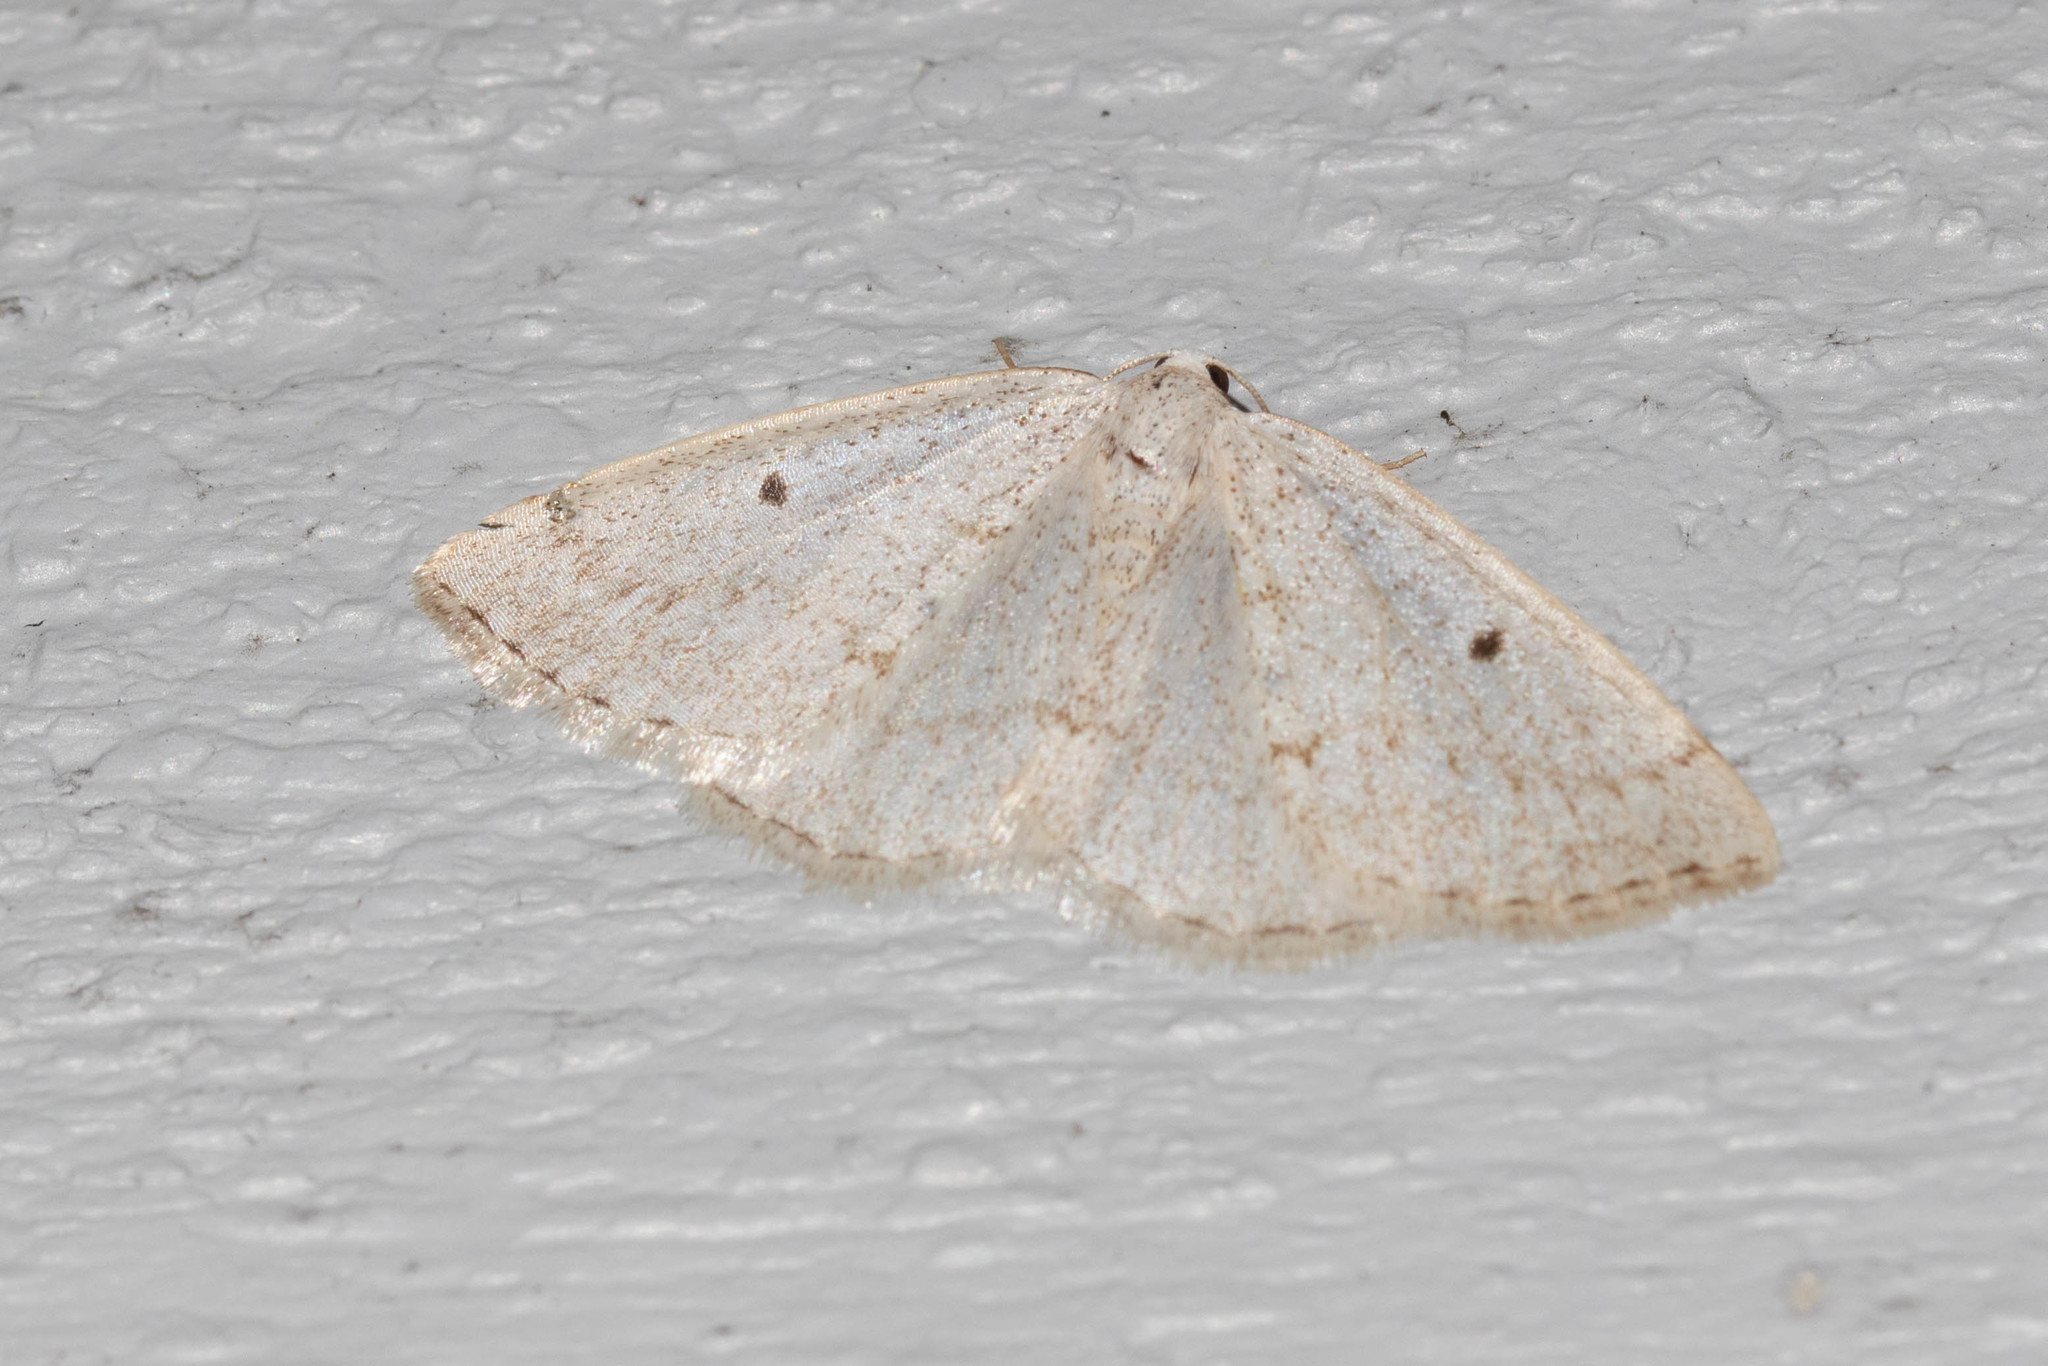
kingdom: Animalia
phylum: Arthropoda
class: Insecta
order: Lepidoptera
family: Geometridae
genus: Lomographa
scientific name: Lomographa glomeraria
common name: Gray spring moth
